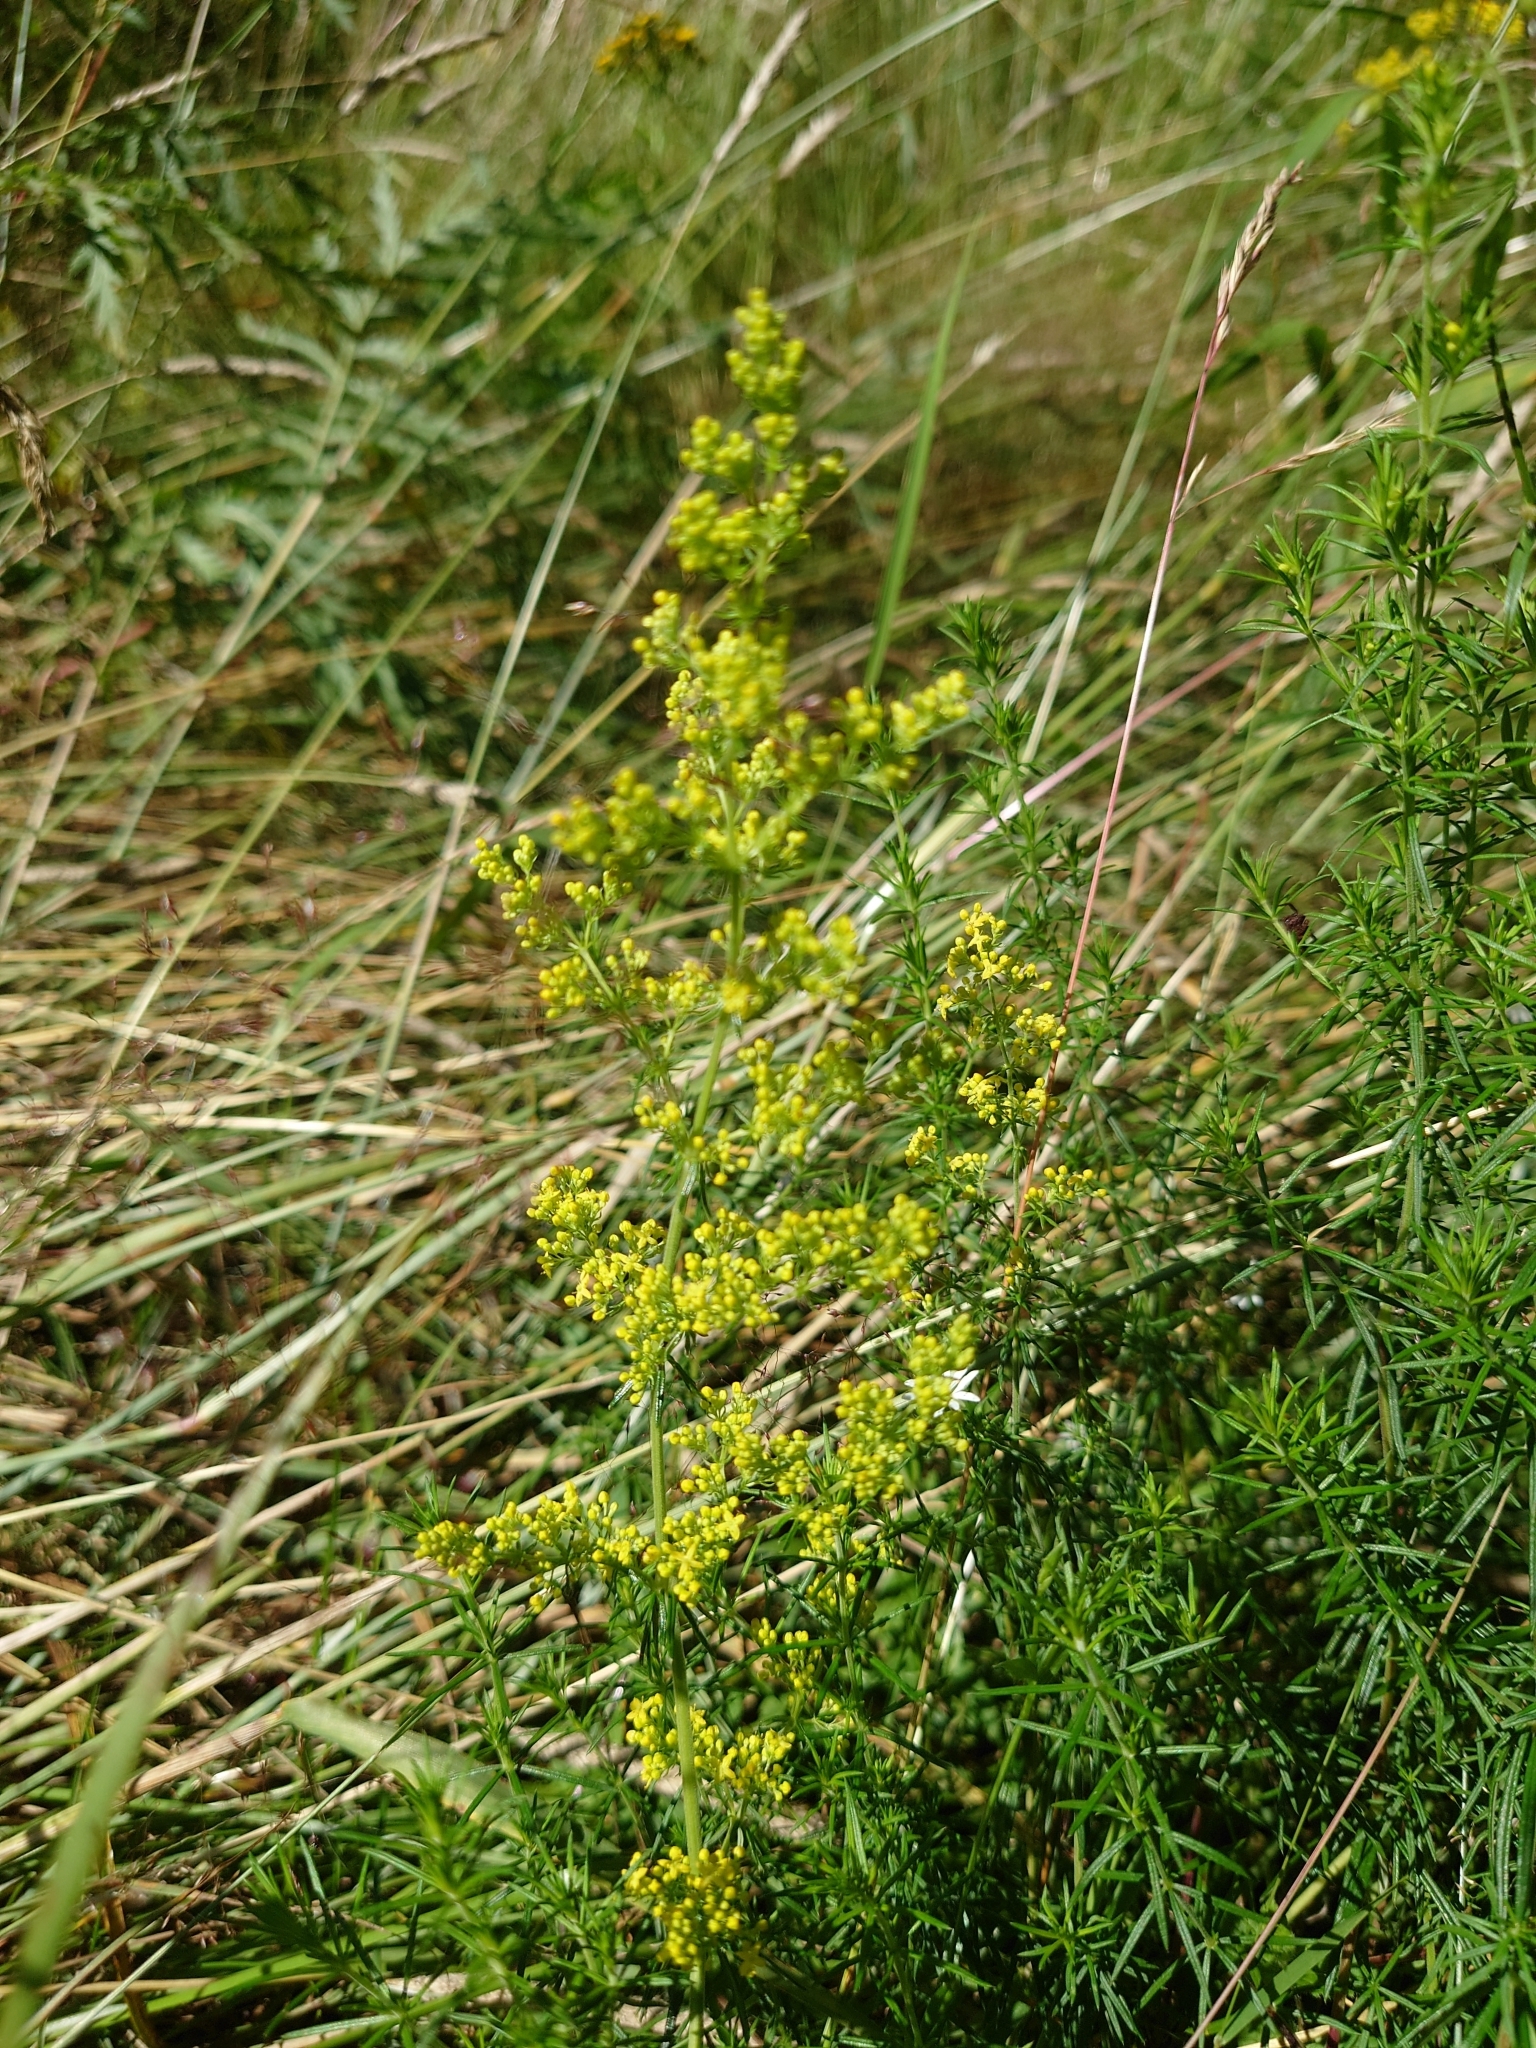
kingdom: Plantae
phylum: Tracheophyta
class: Magnoliopsida
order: Gentianales
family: Rubiaceae
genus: Galium
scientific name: Galium verum
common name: Lady's bedstraw
